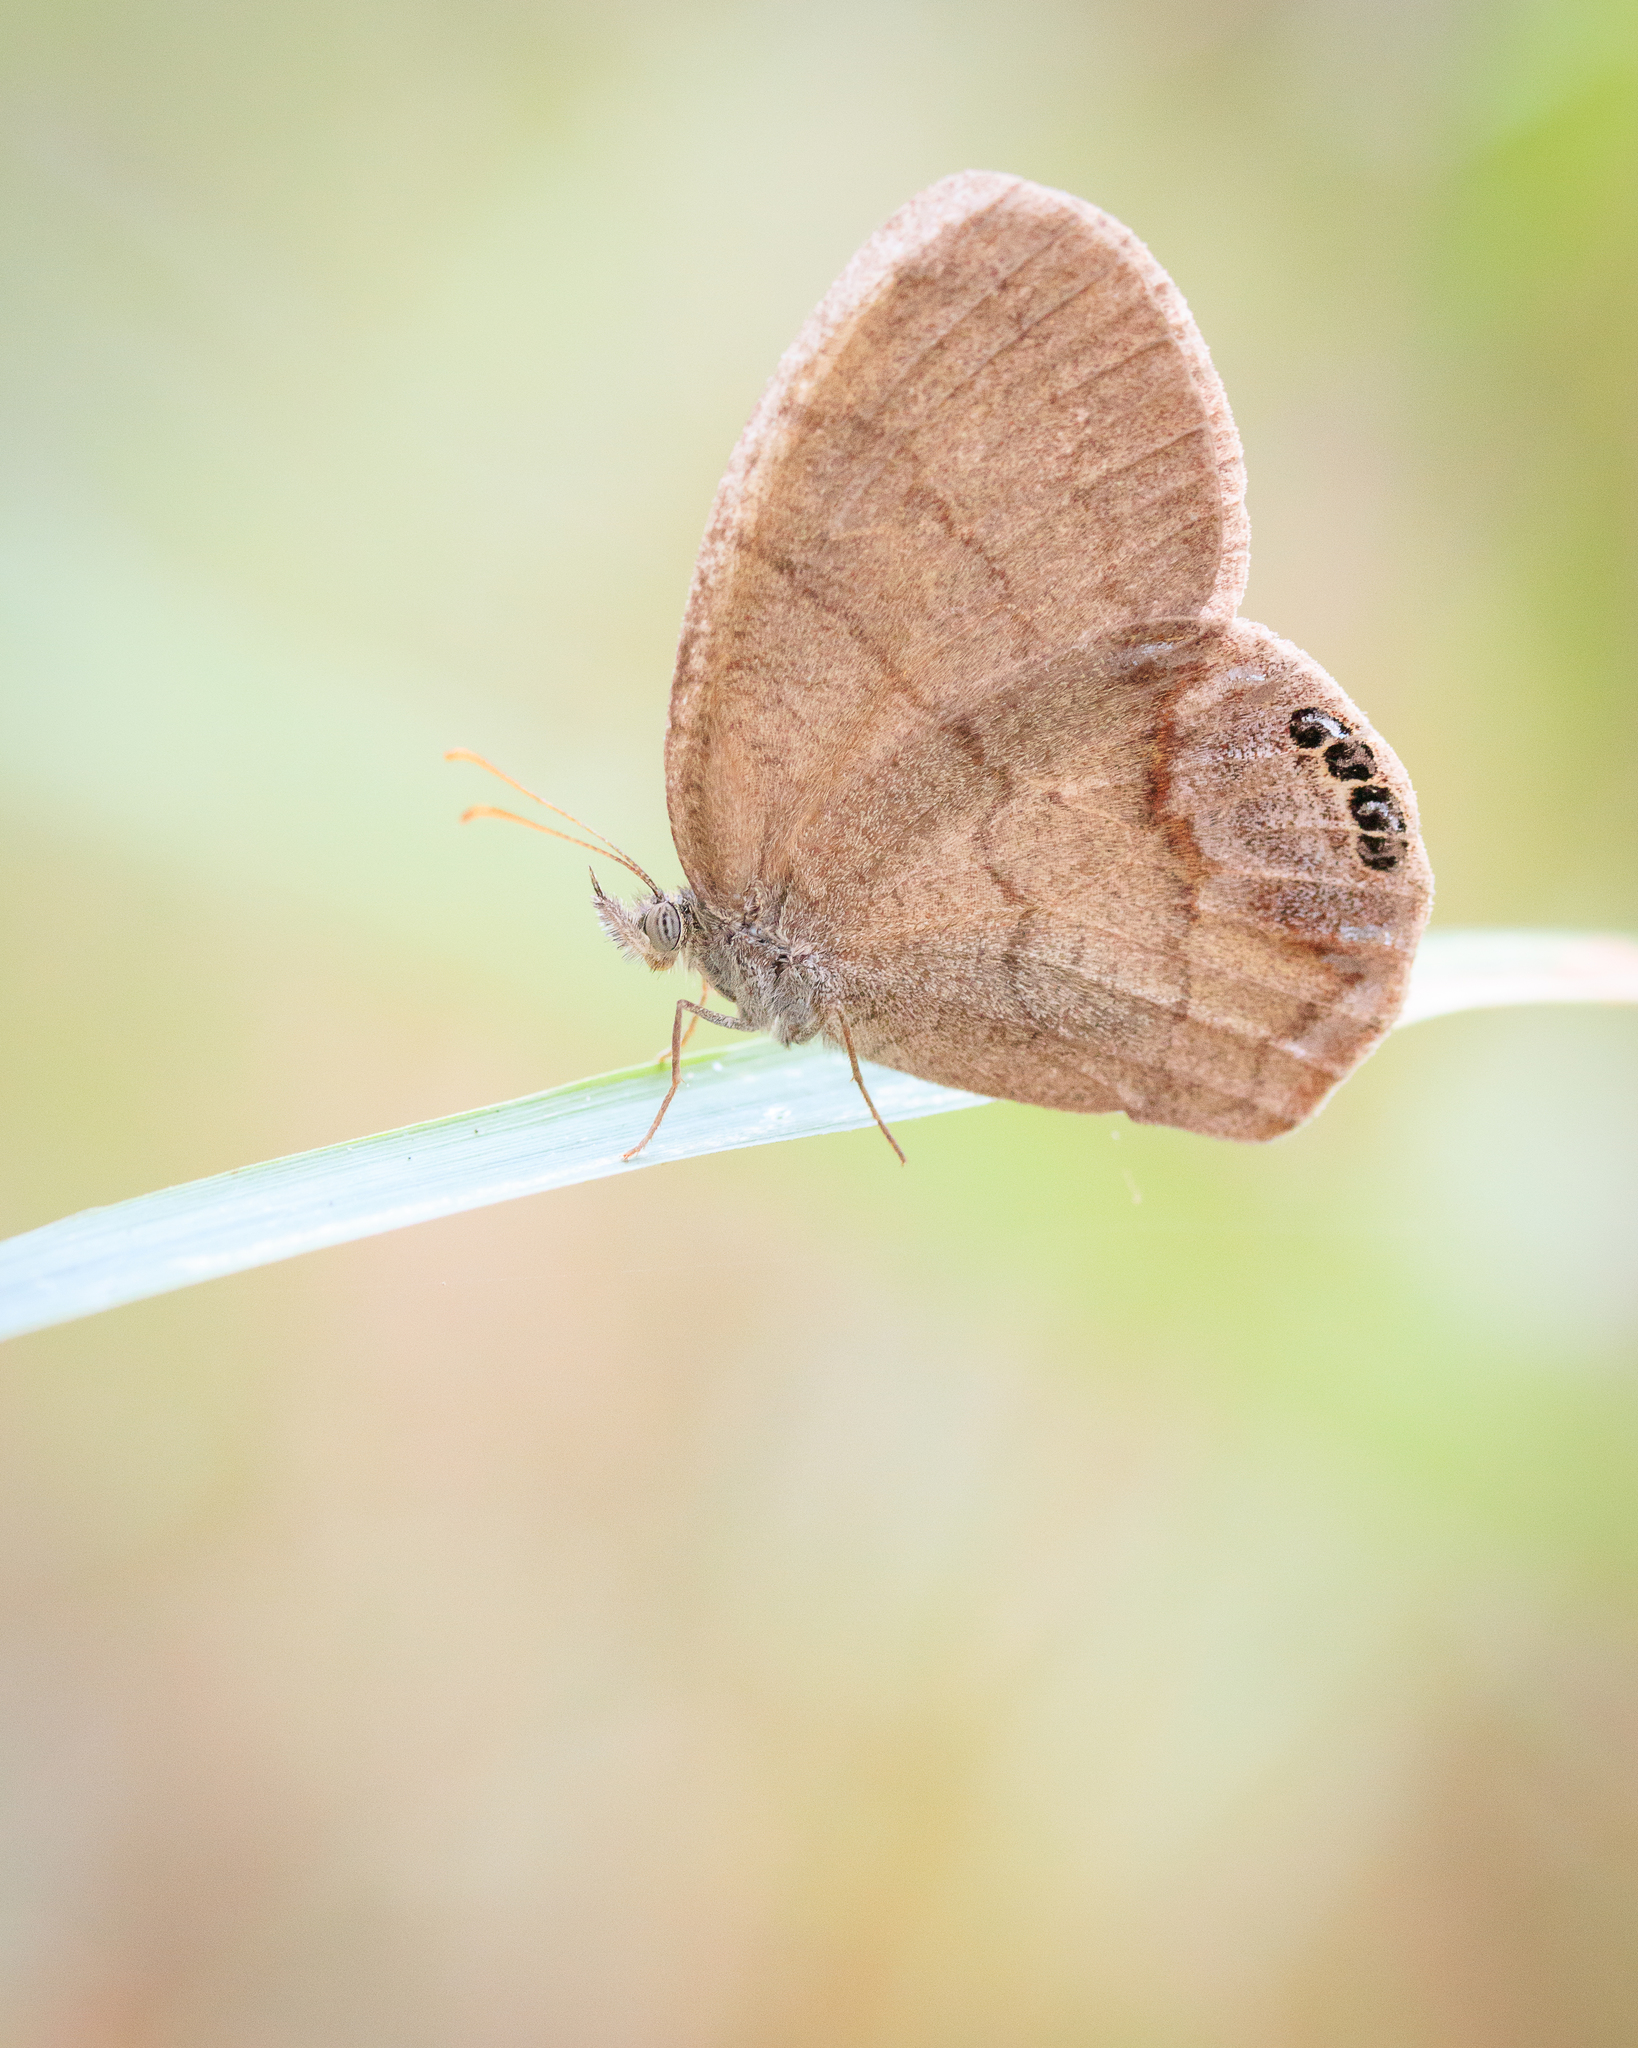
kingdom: Animalia
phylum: Arthropoda
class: Insecta
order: Lepidoptera
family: Nymphalidae
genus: Euptychia
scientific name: Euptychia cornelius
